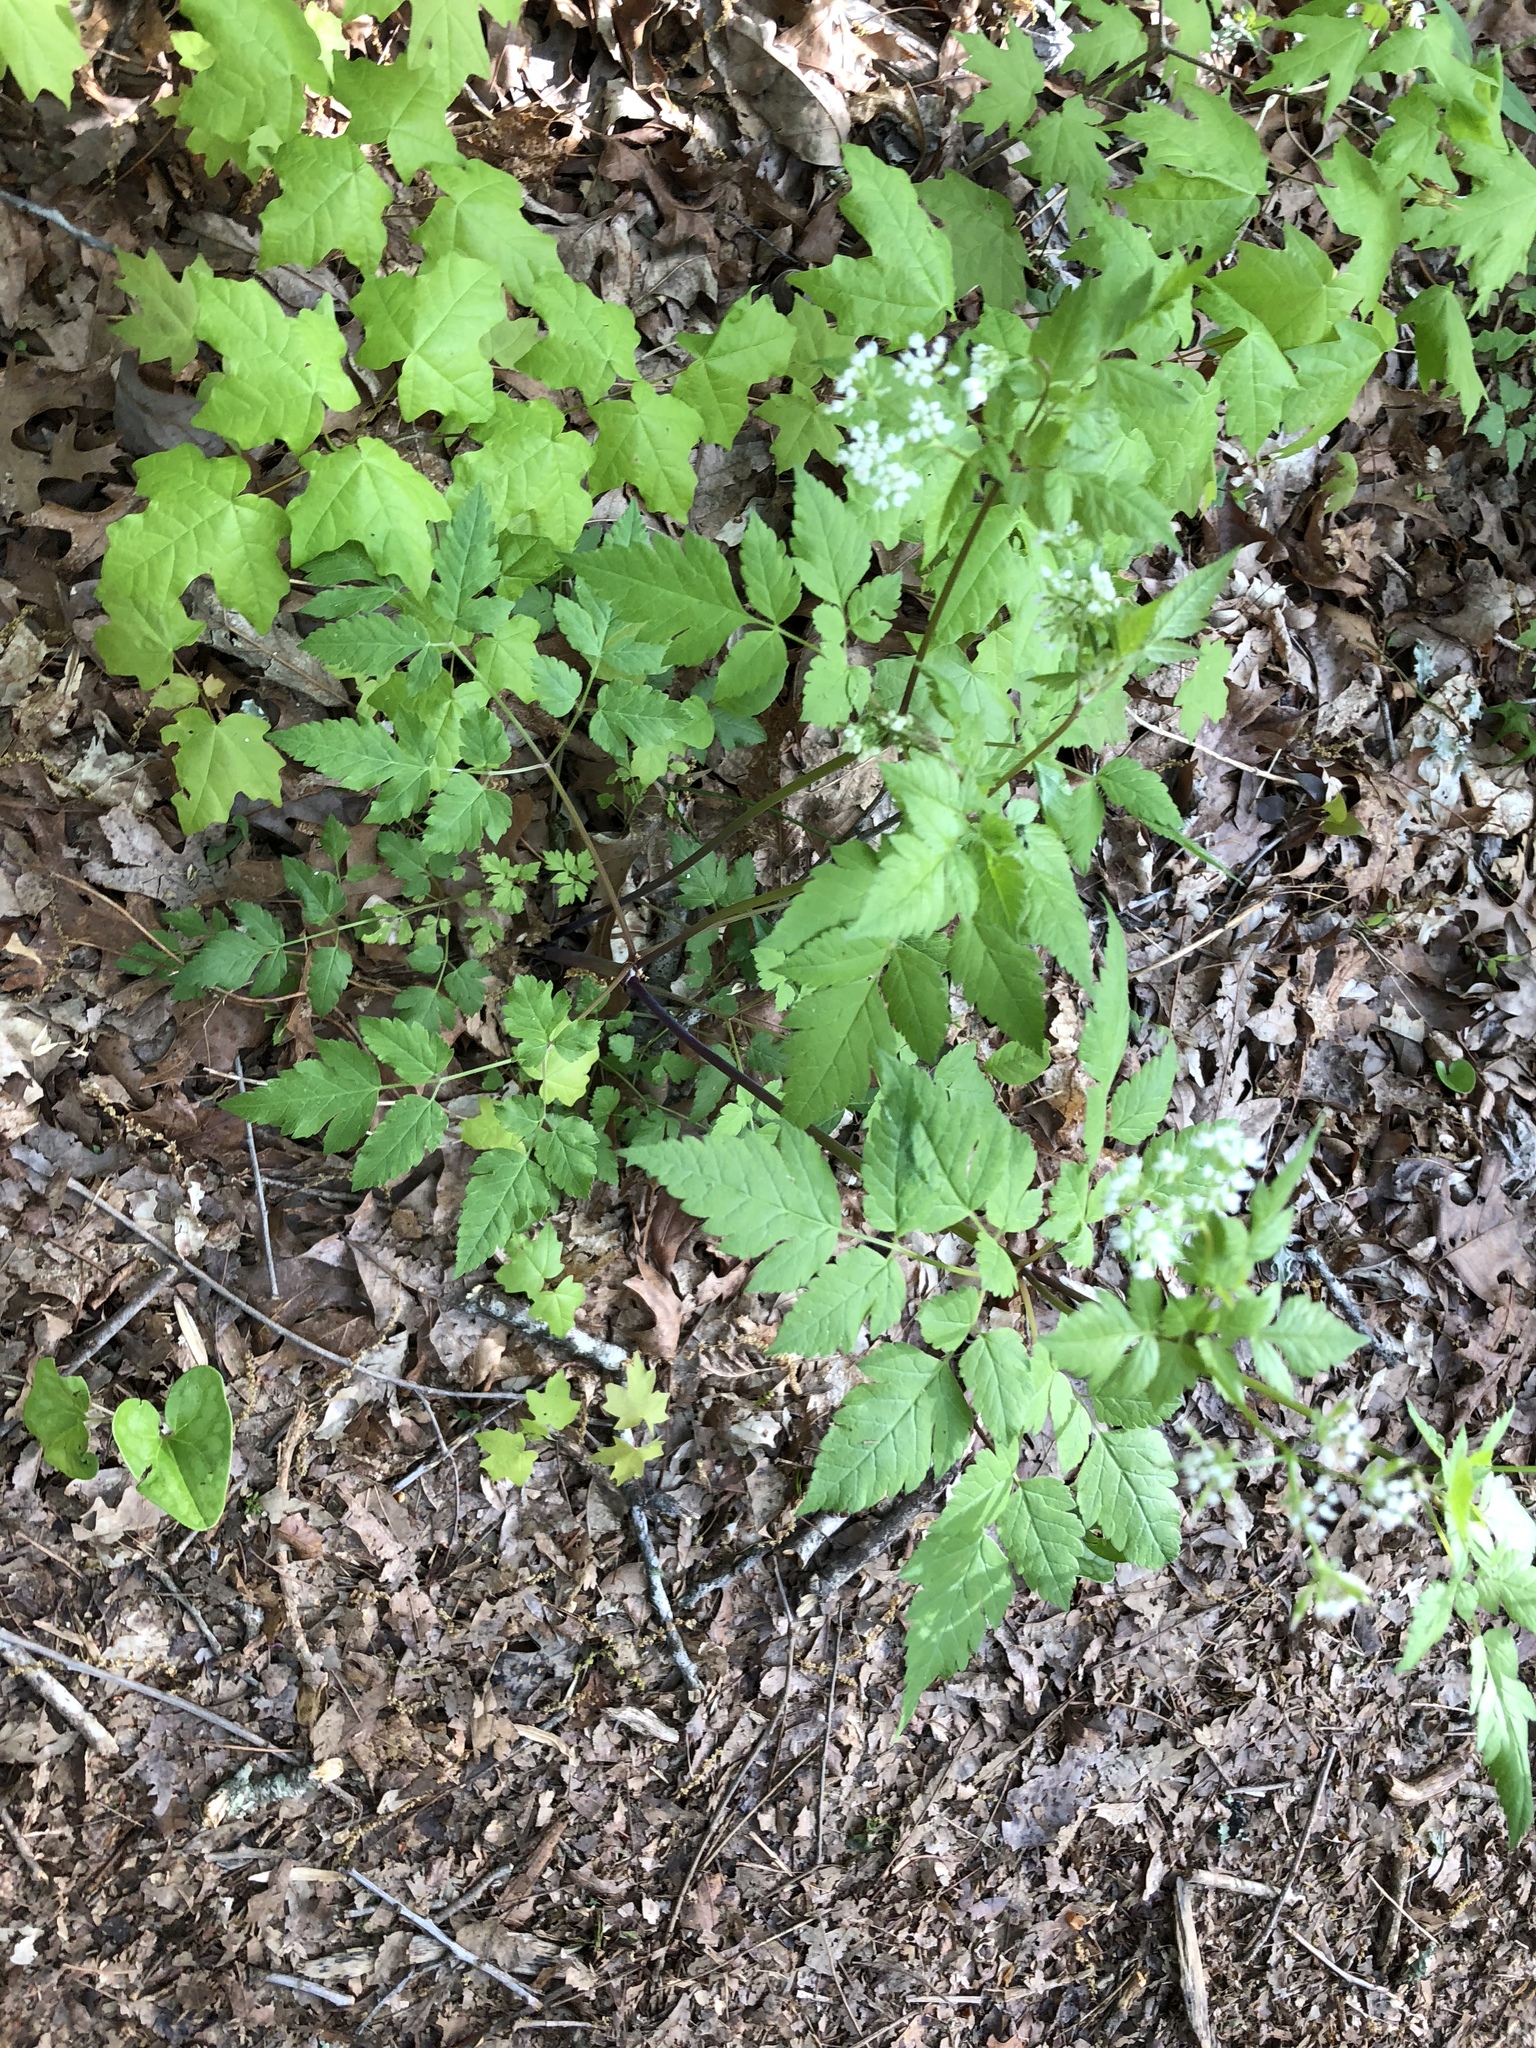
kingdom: Plantae
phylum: Tracheophyta
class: Magnoliopsida
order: Apiales
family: Apiaceae
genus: Osmorhiza
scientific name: Osmorhiza longistylis
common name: Smooth sweet cicely
